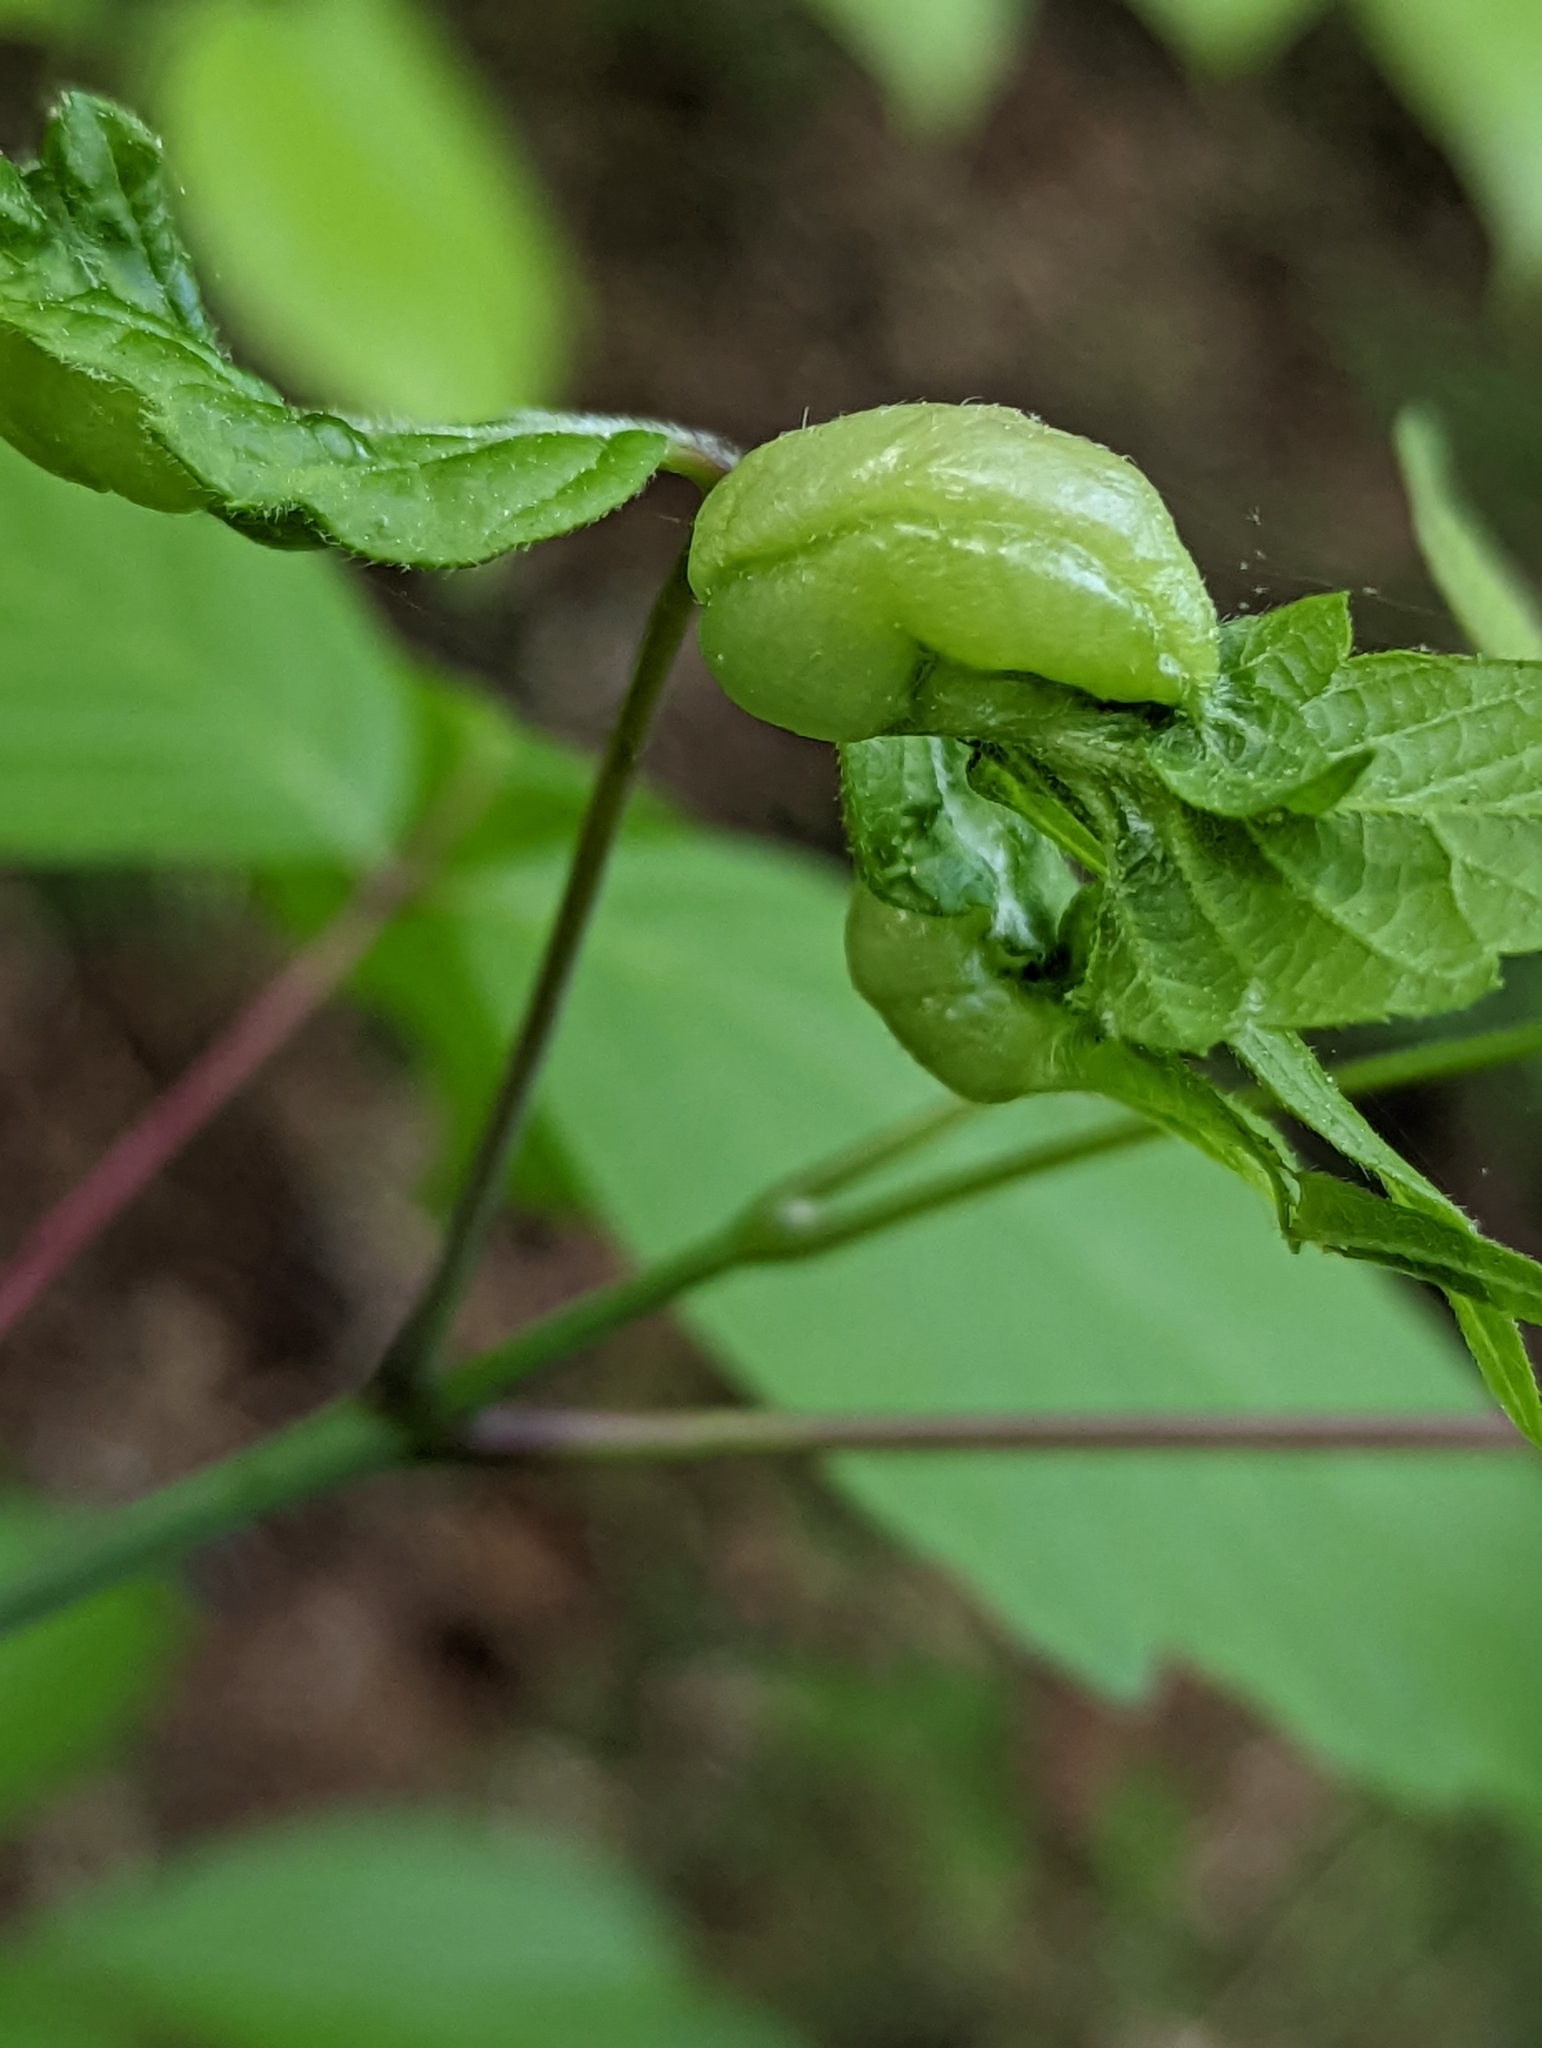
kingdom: Animalia
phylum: Arthropoda
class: Insecta
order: Diptera
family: Cecidomyiidae
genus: Contarinia
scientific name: Contarinia negundinis
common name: Boxelder budgall midge
